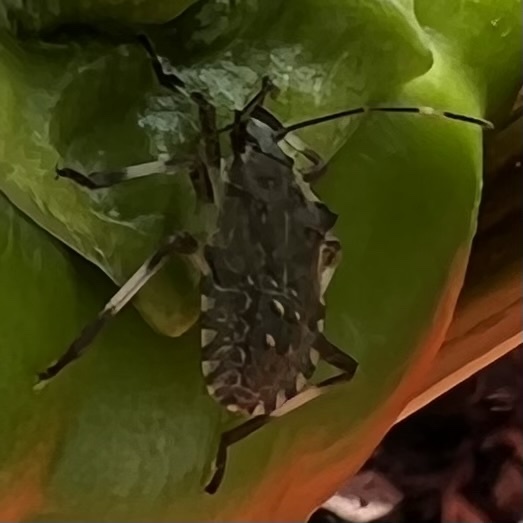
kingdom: Animalia
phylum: Arthropoda
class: Insecta
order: Hemiptera
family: Pentatomidae
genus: Halyomorpha
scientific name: Halyomorpha halys
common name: Brown marmorated stink bug
